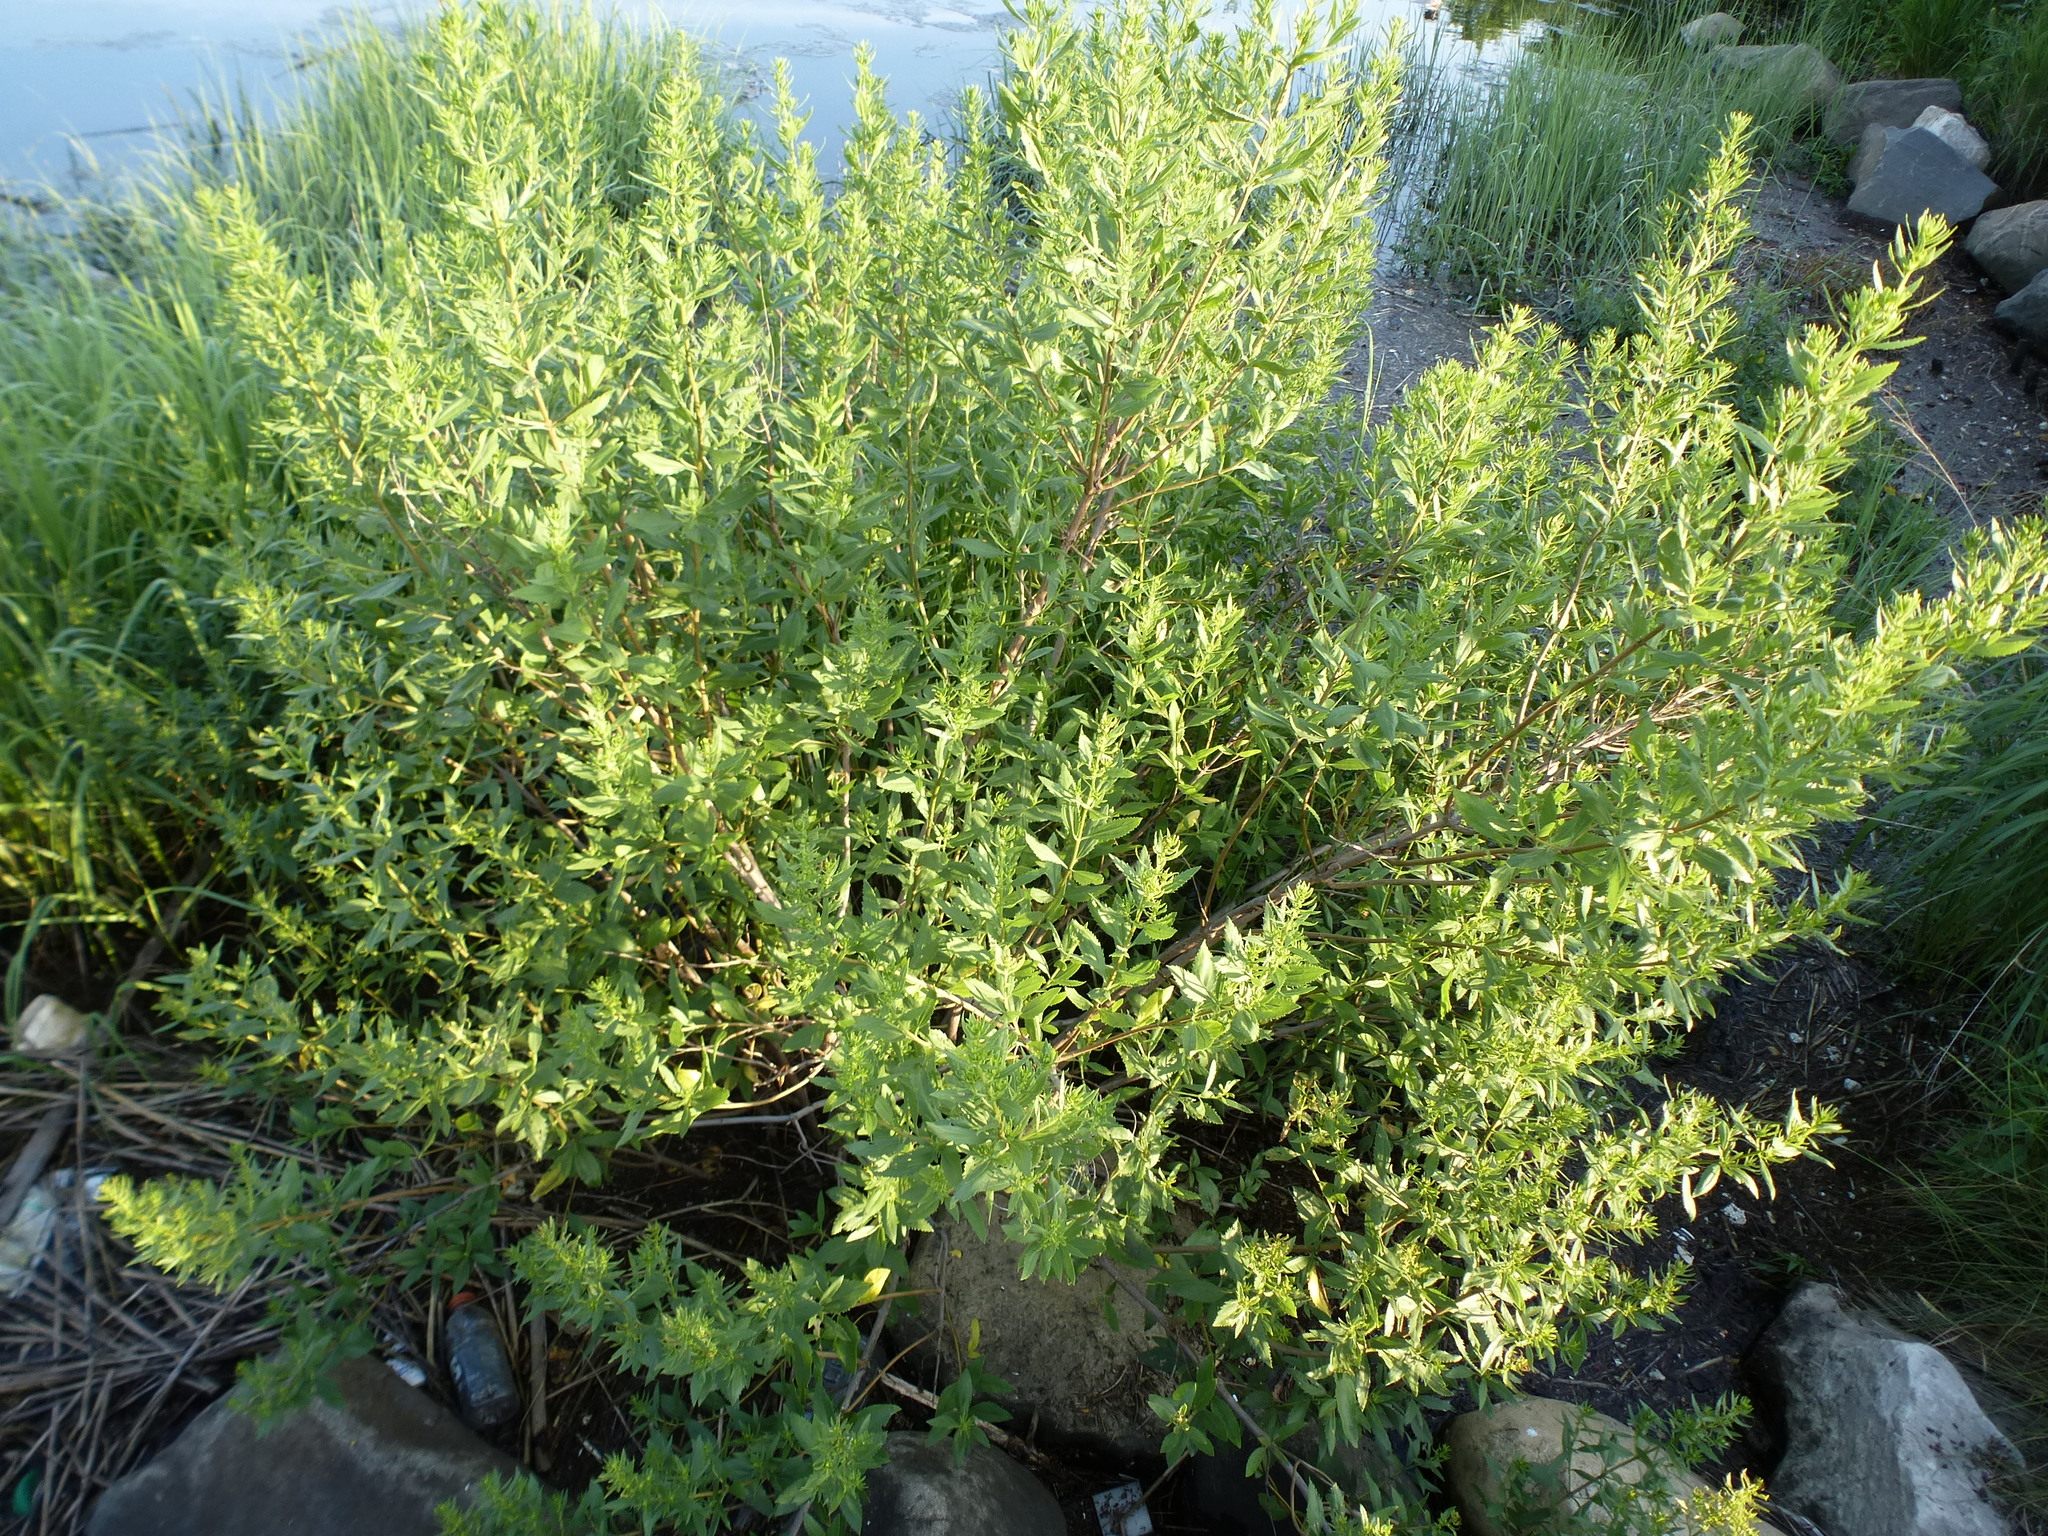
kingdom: Plantae
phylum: Tracheophyta
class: Magnoliopsida
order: Asterales
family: Asteraceae
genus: Iva
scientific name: Iva frutescens
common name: Big-leaved marsh-elder
